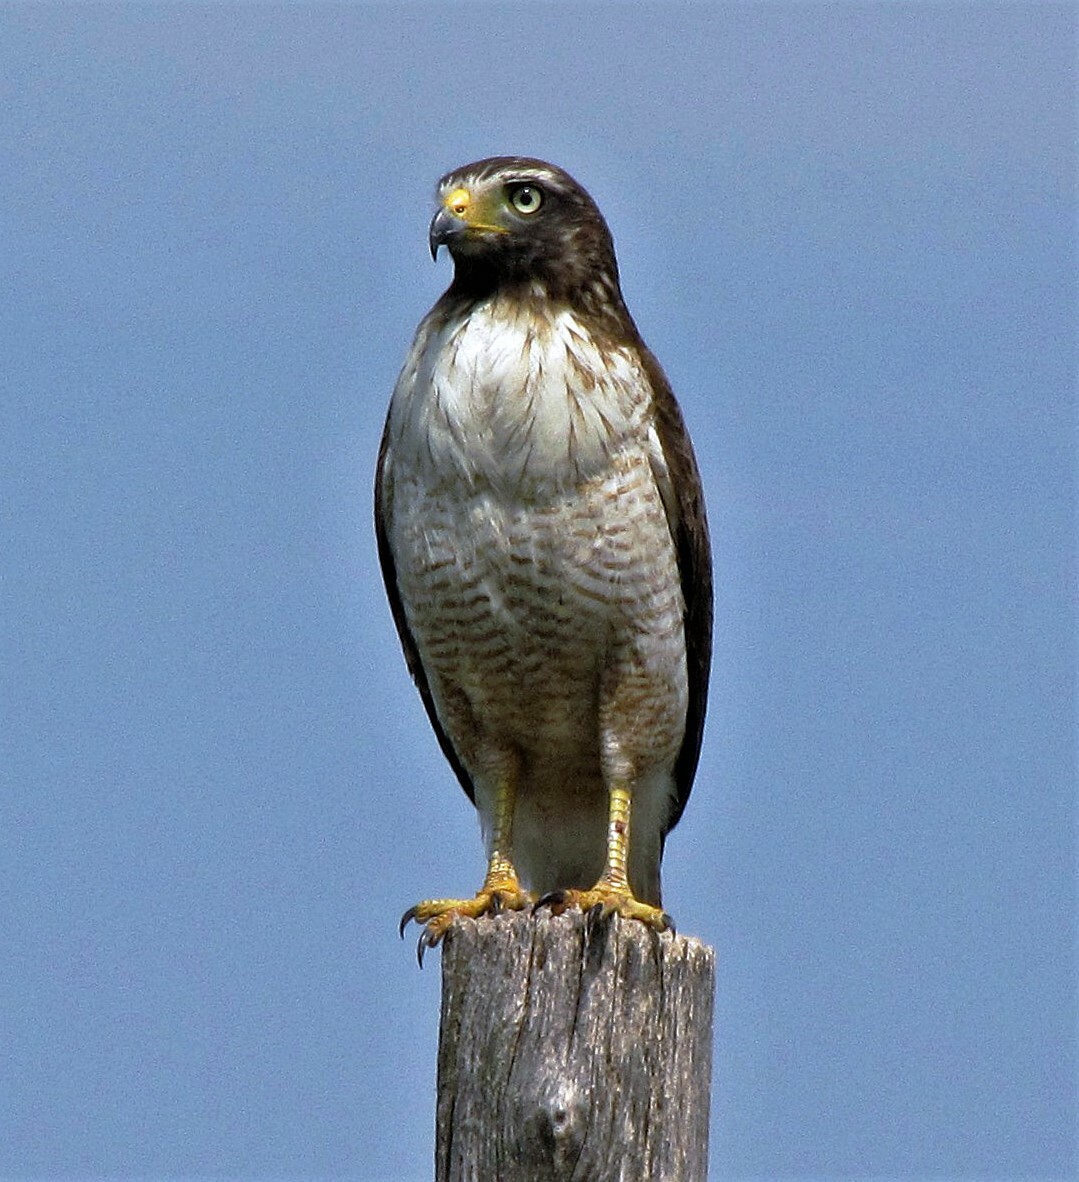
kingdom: Animalia
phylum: Chordata
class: Aves
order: Accipitriformes
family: Accipitridae
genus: Rupornis
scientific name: Rupornis magnirostris
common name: Roadside hawk
